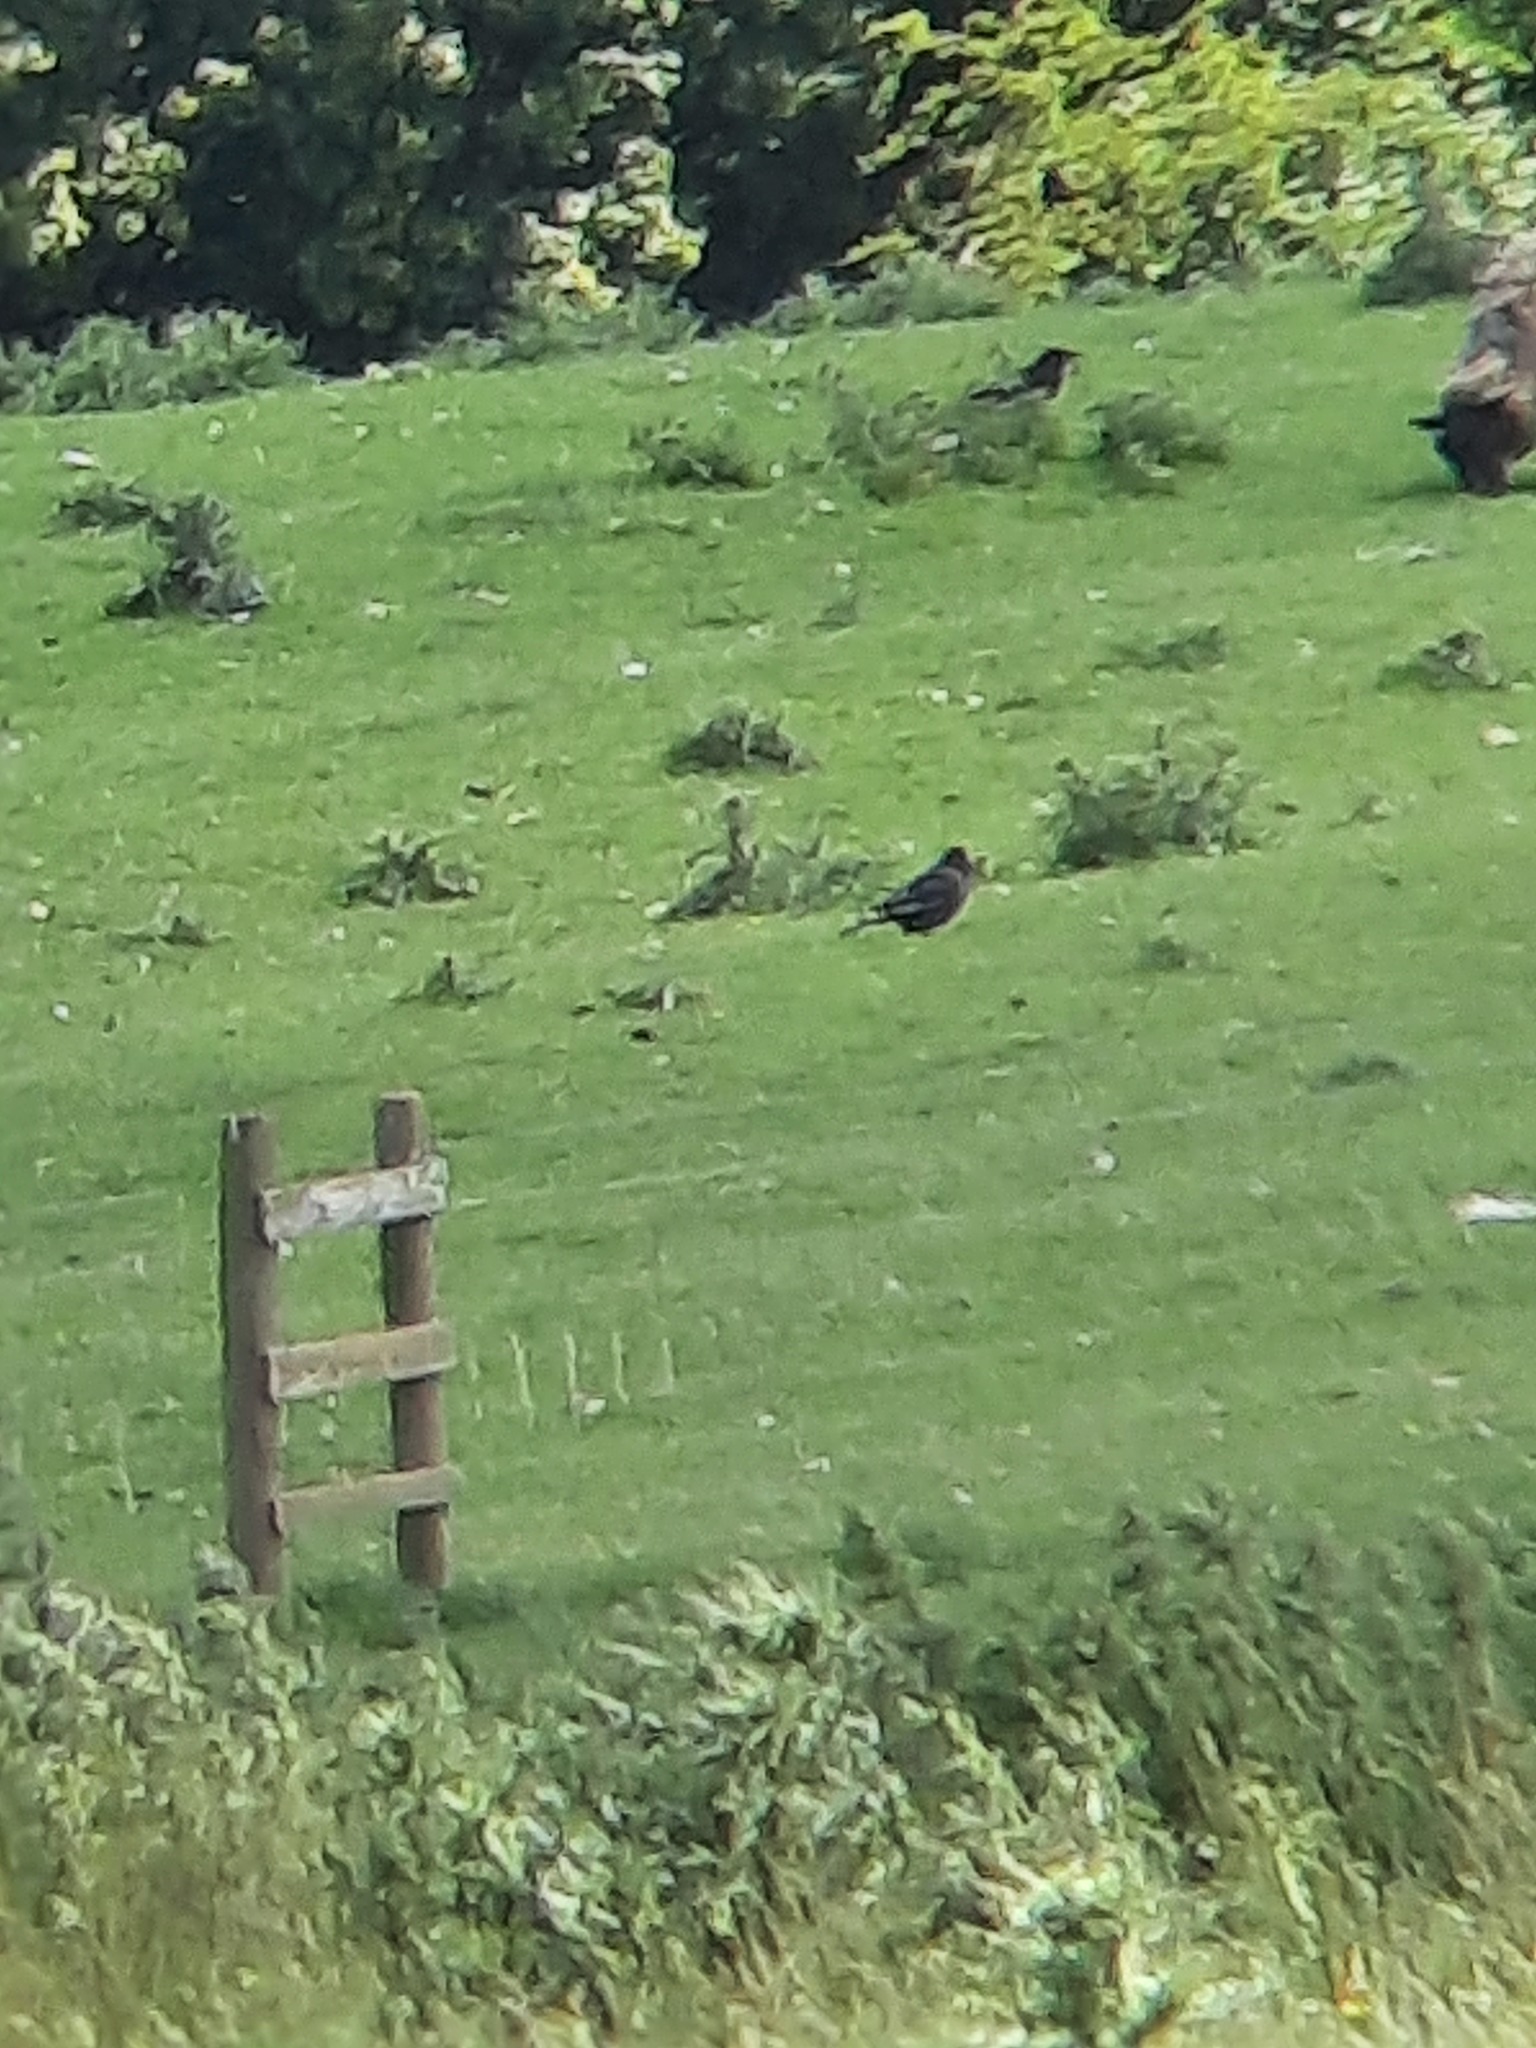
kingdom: Animalia
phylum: Chordata
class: Aves
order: Passeriformes
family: Corvidae
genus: Corvus
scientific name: Corvus corone
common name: Carrion crow
